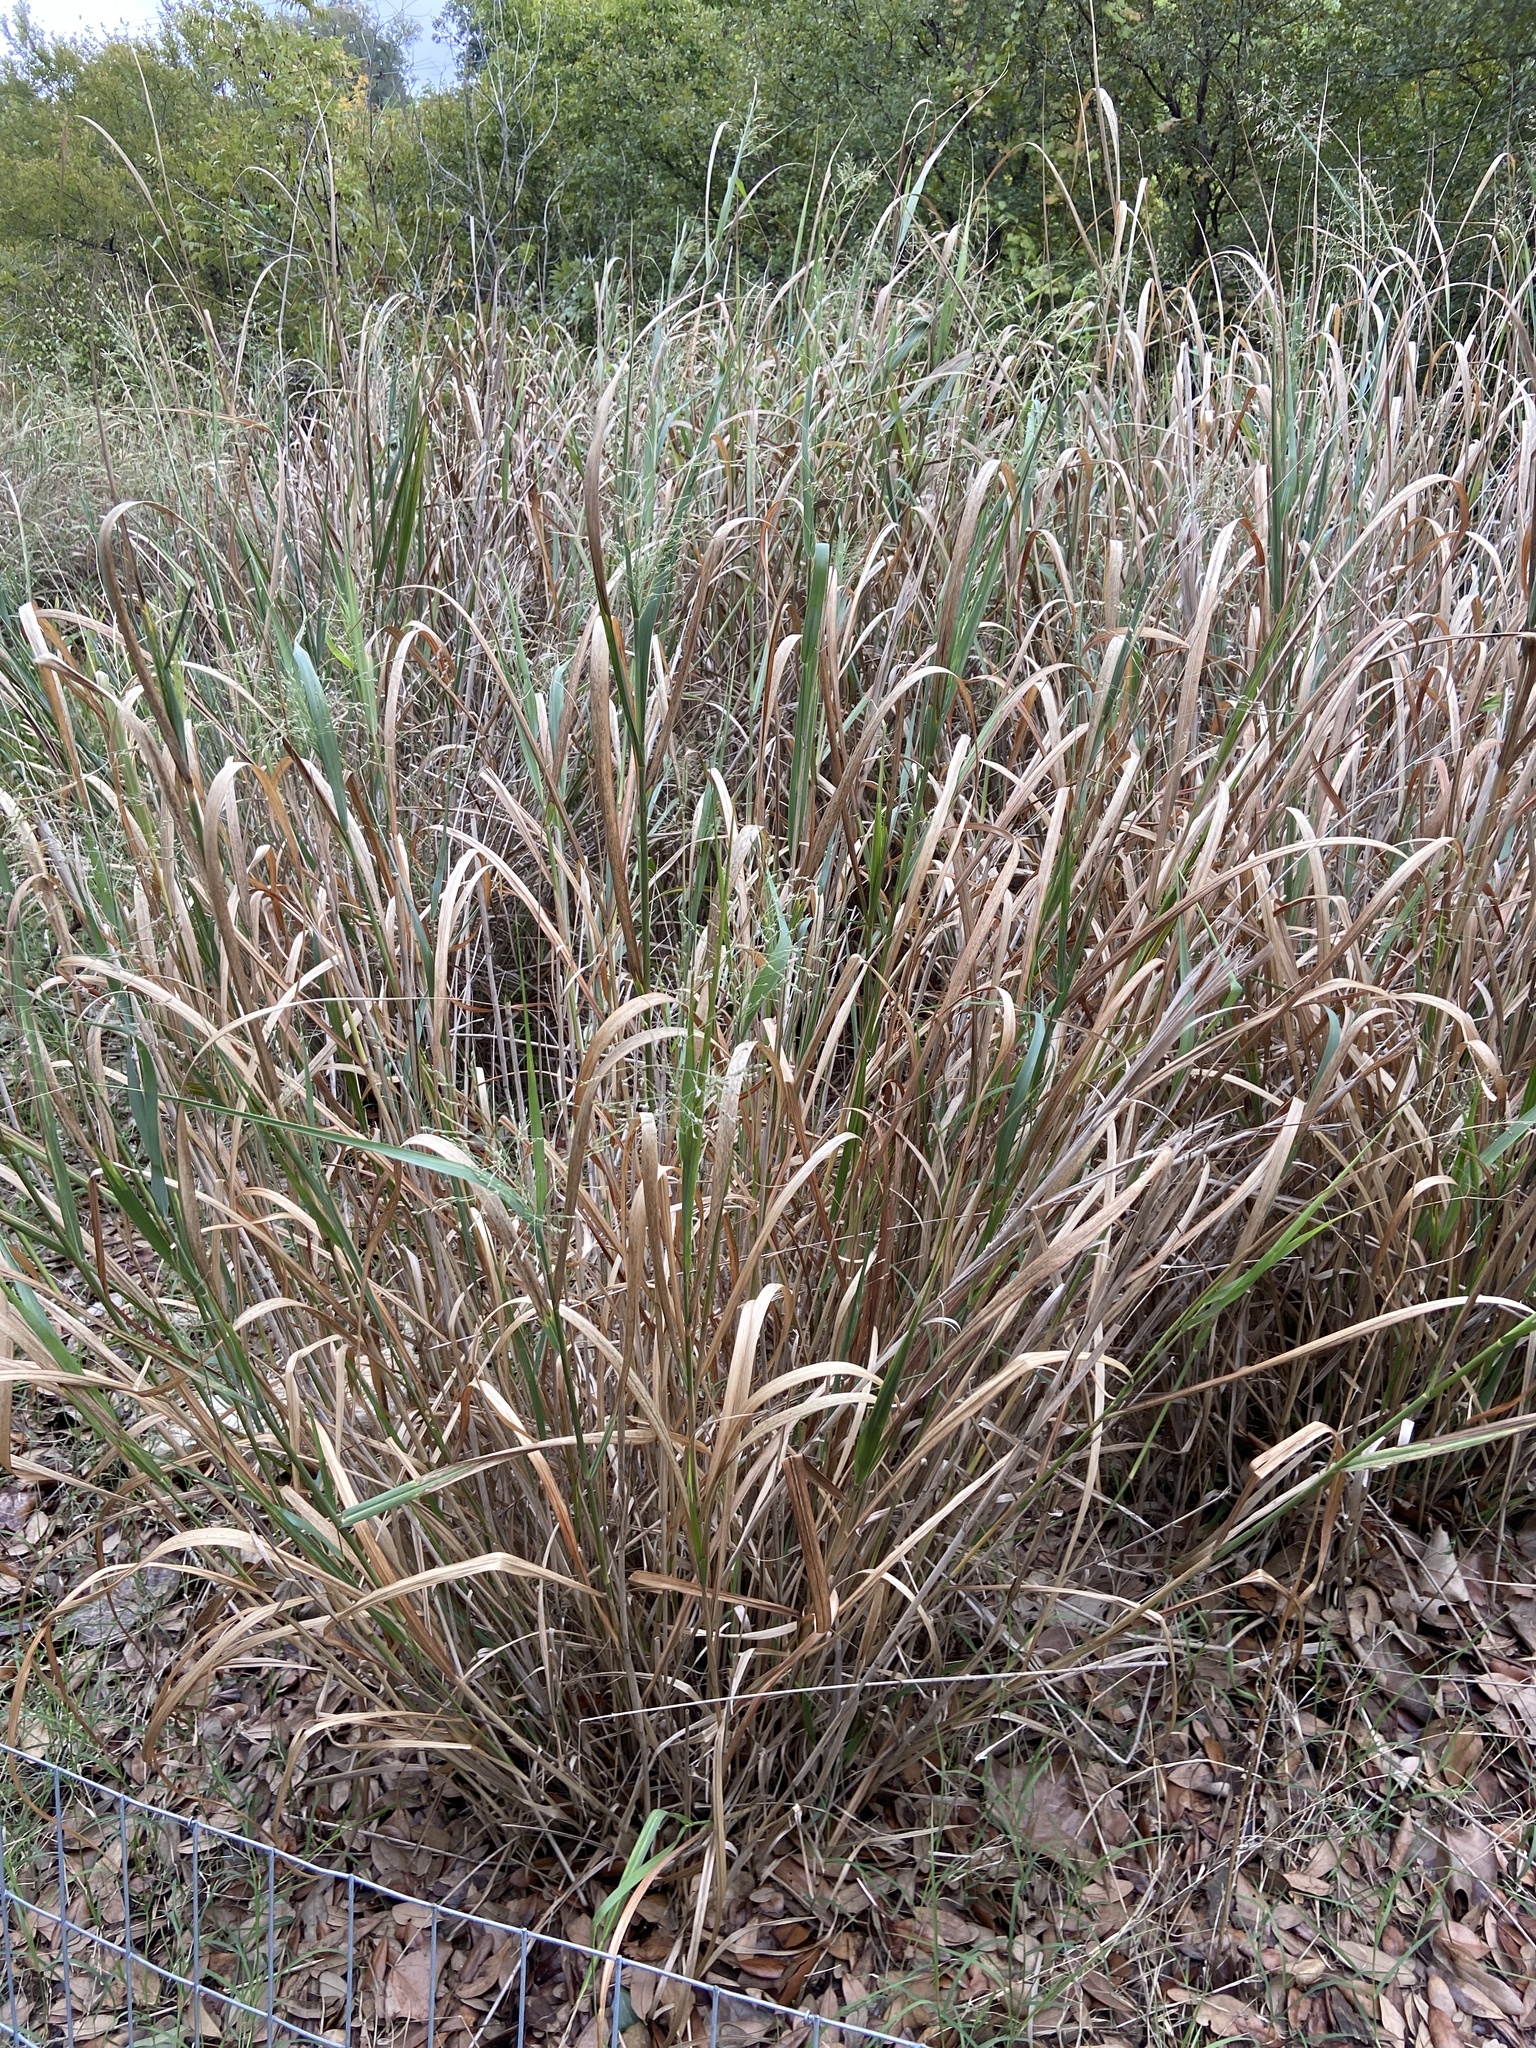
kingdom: Plantae
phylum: Tracheophyta
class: Liliopsida
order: Poales
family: Poaceae
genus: Panicum
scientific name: Panicum virgatum
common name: Switchgrass
